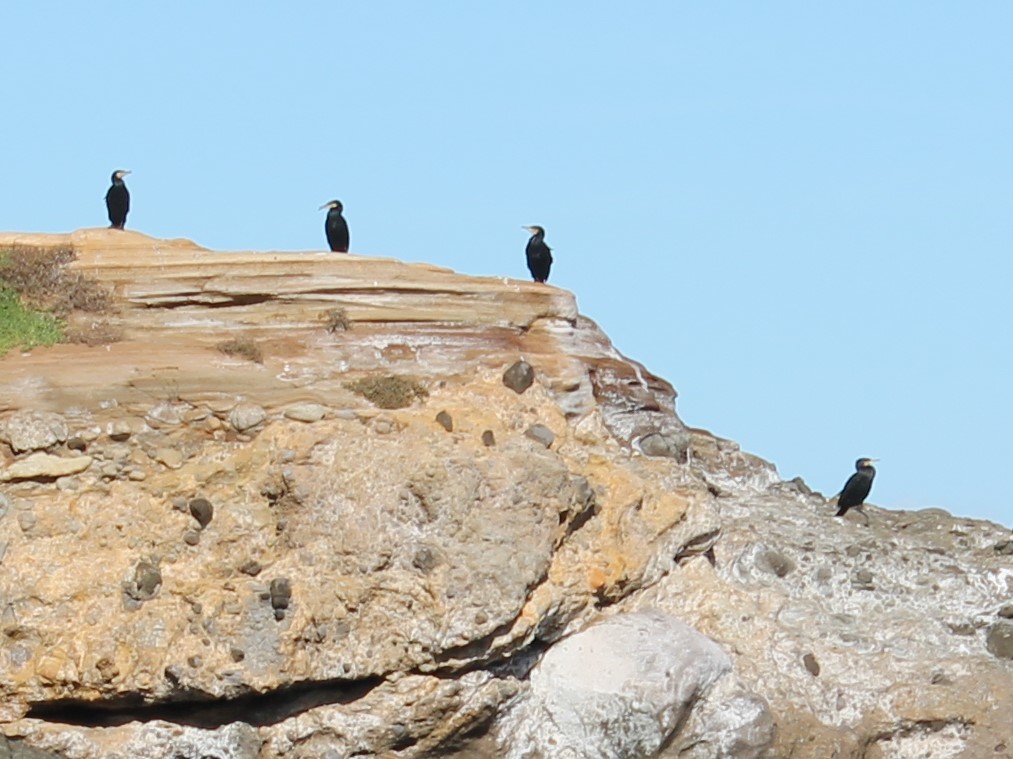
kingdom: Animalia
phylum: Chordata
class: Aves
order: Suliformes
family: Phalacrocoracidae
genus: Phalacrocorax
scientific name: Phalacrocorax carbo
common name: Great cormorant
